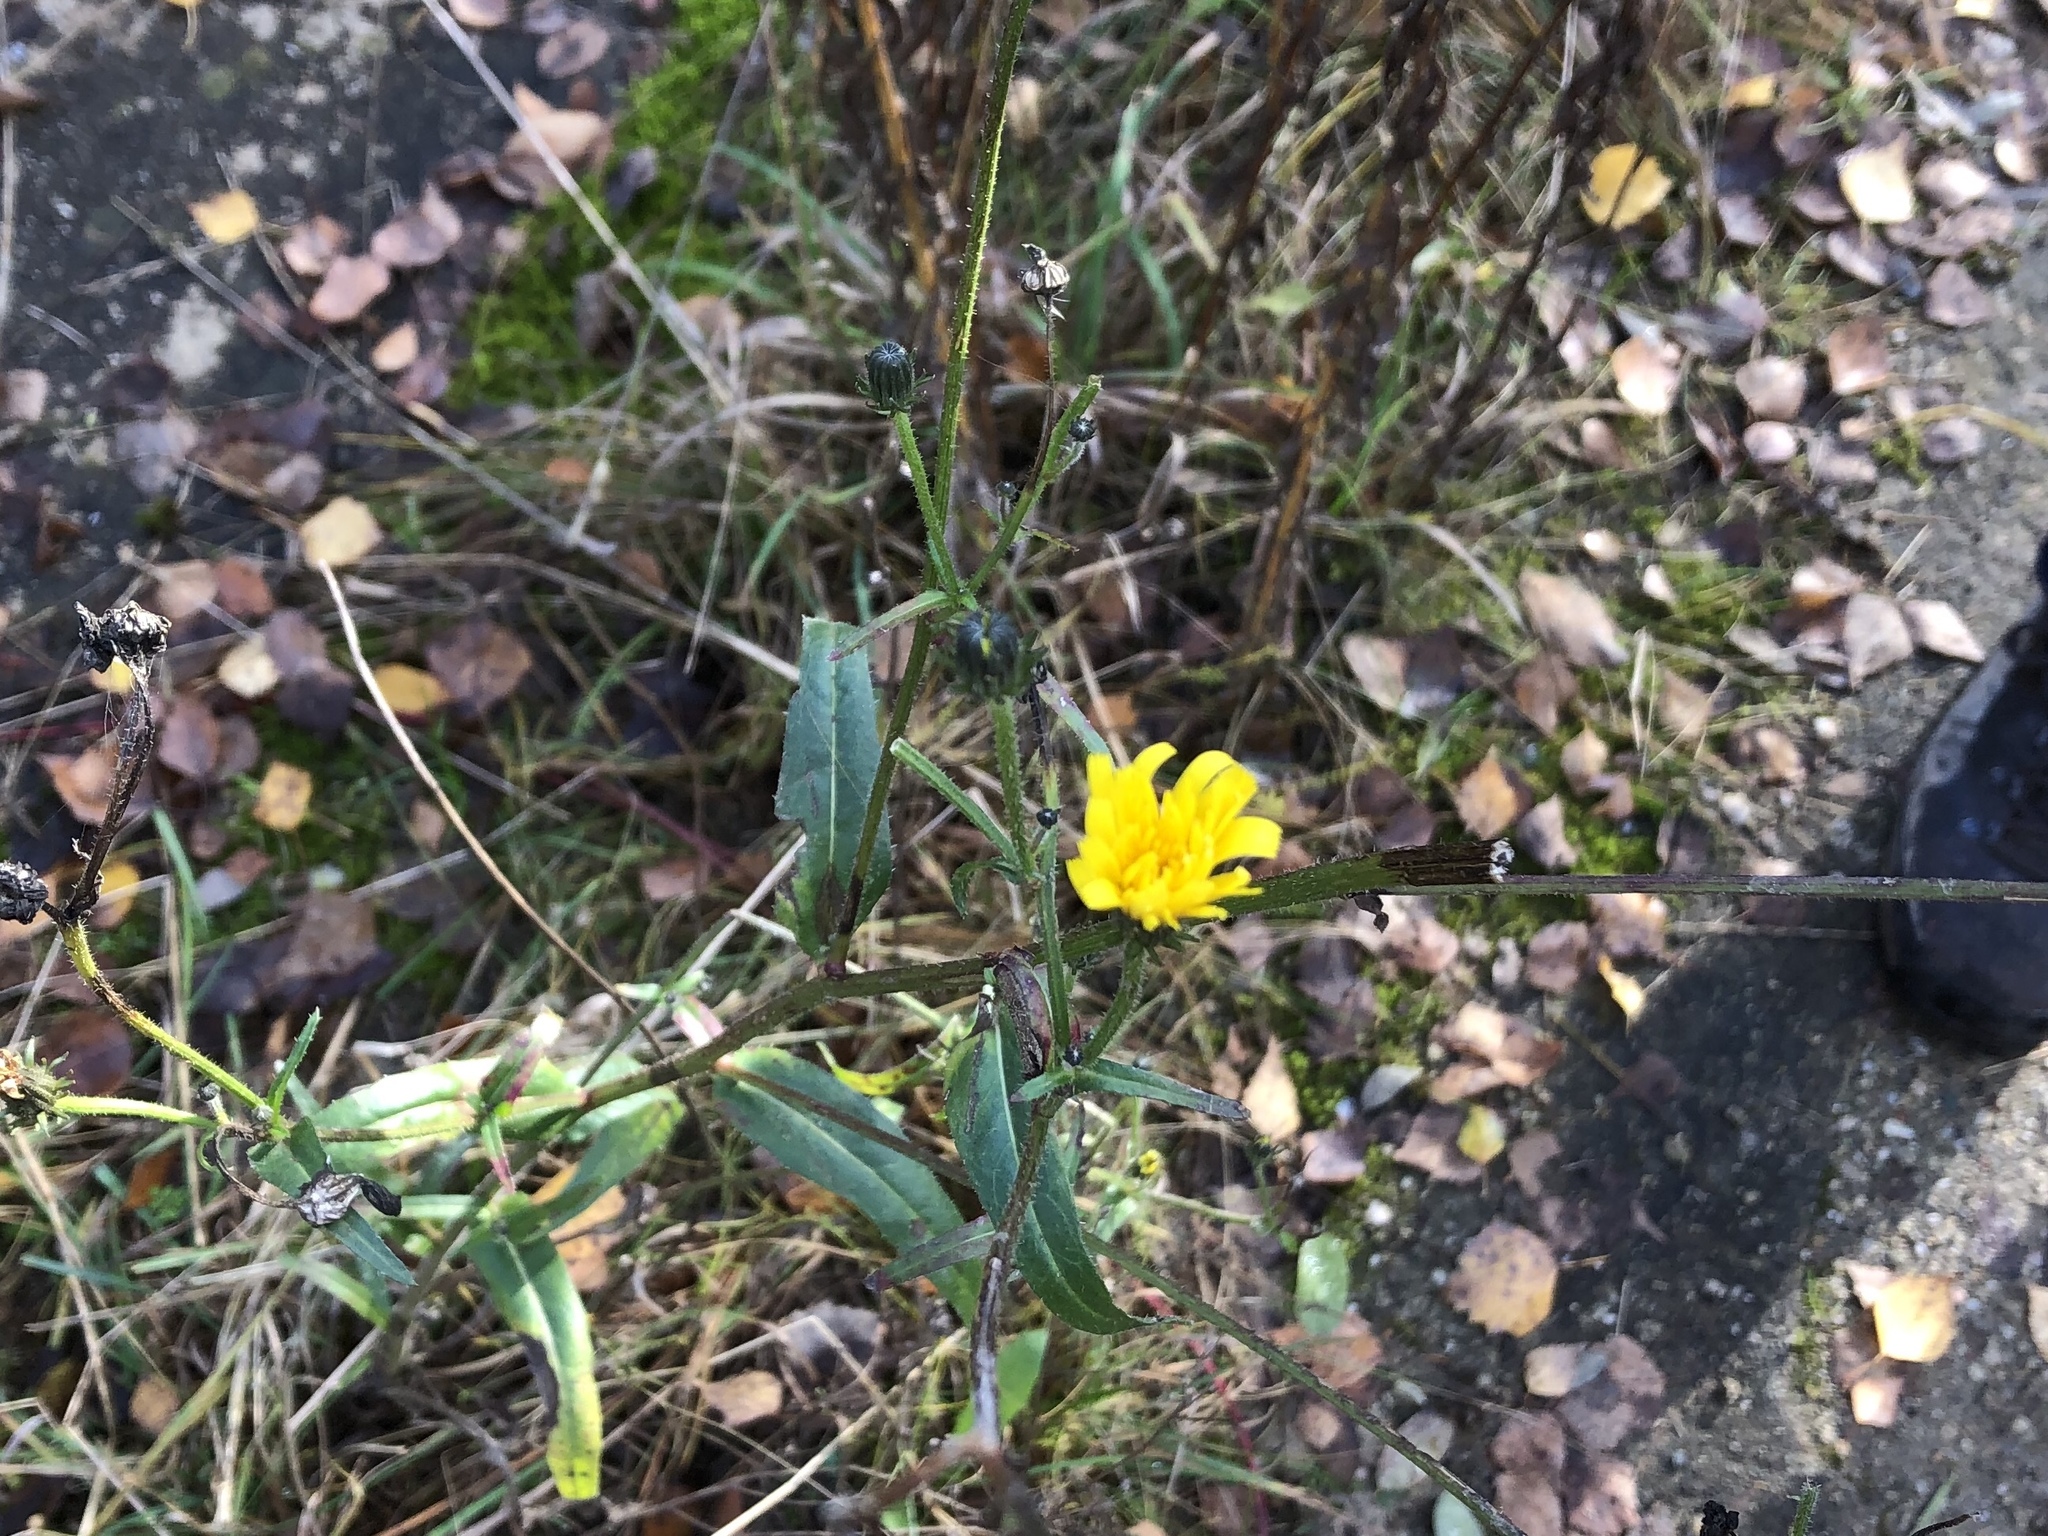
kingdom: Plantae
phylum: Tracheophyta
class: Magnoliopsida
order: Asterales
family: Asteraceae
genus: Picris
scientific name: Picris hieracioides
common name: Hawkweed oxtongue
